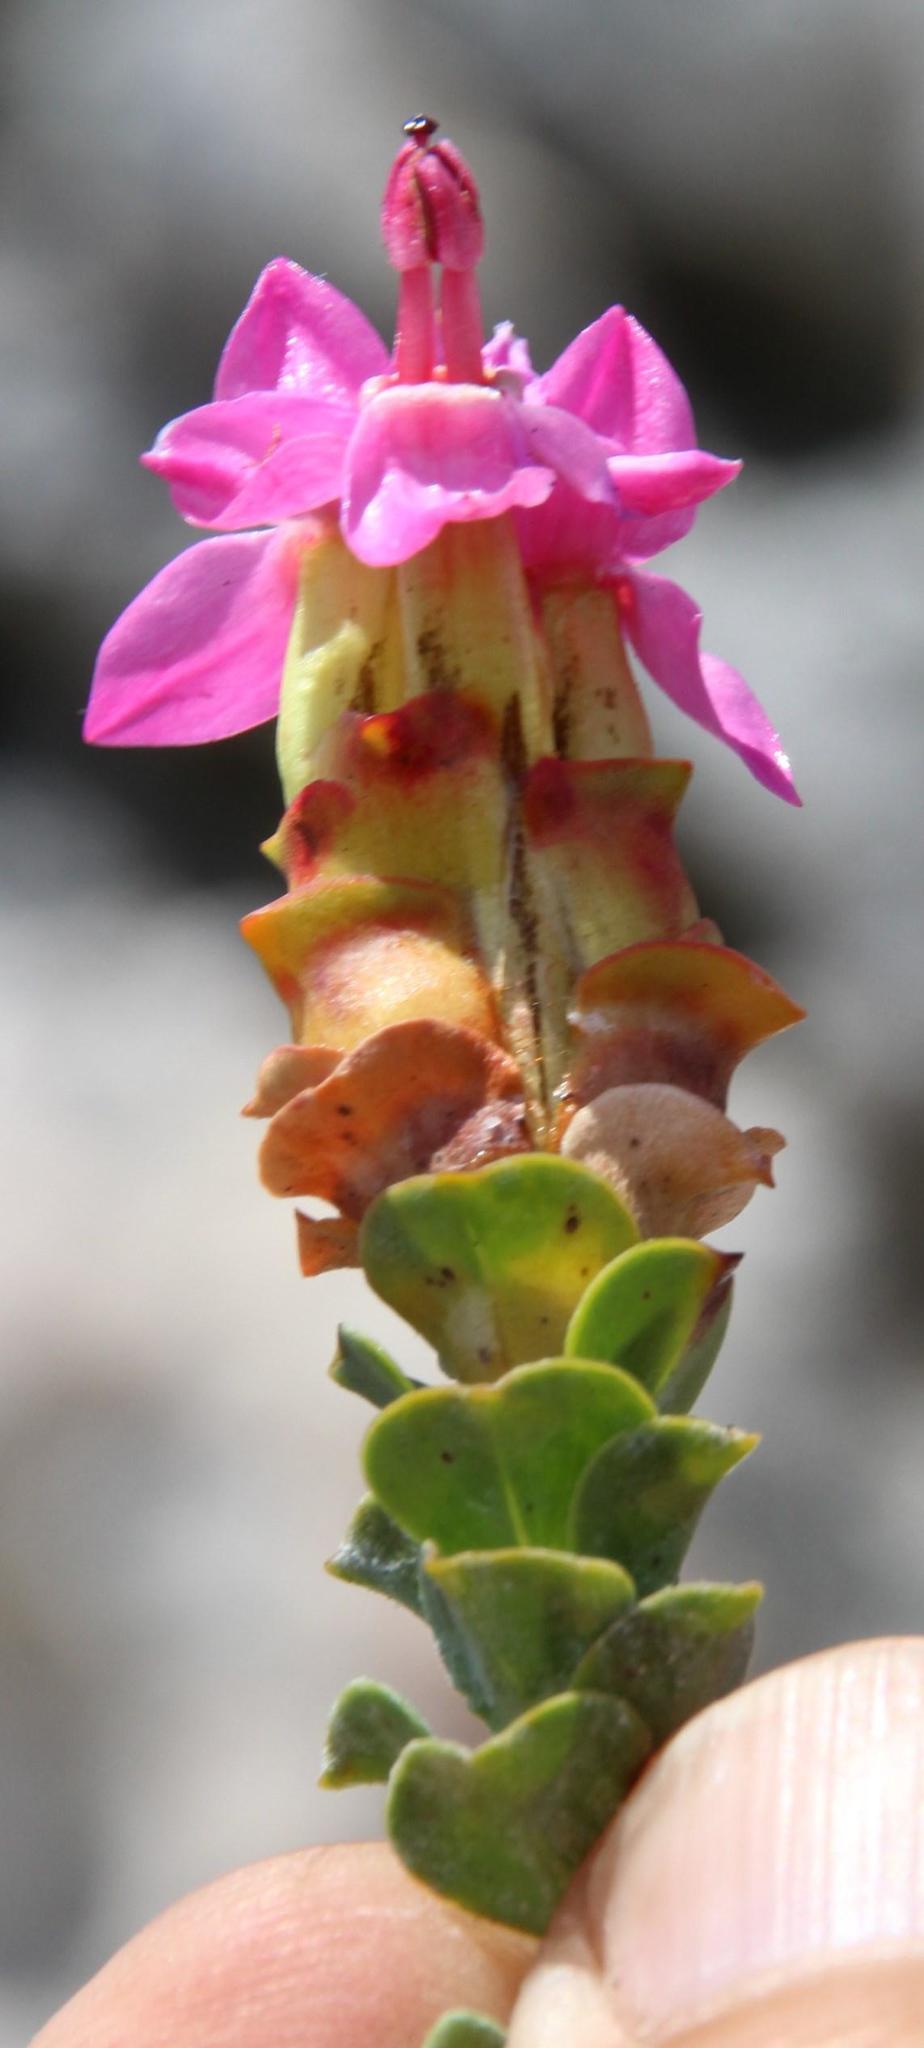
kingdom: Plantae
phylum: Tracheophyta
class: Magnoliopsida
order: Myrtales
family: Penaeaceae
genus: Saltera
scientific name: Saltera sarcocolla
